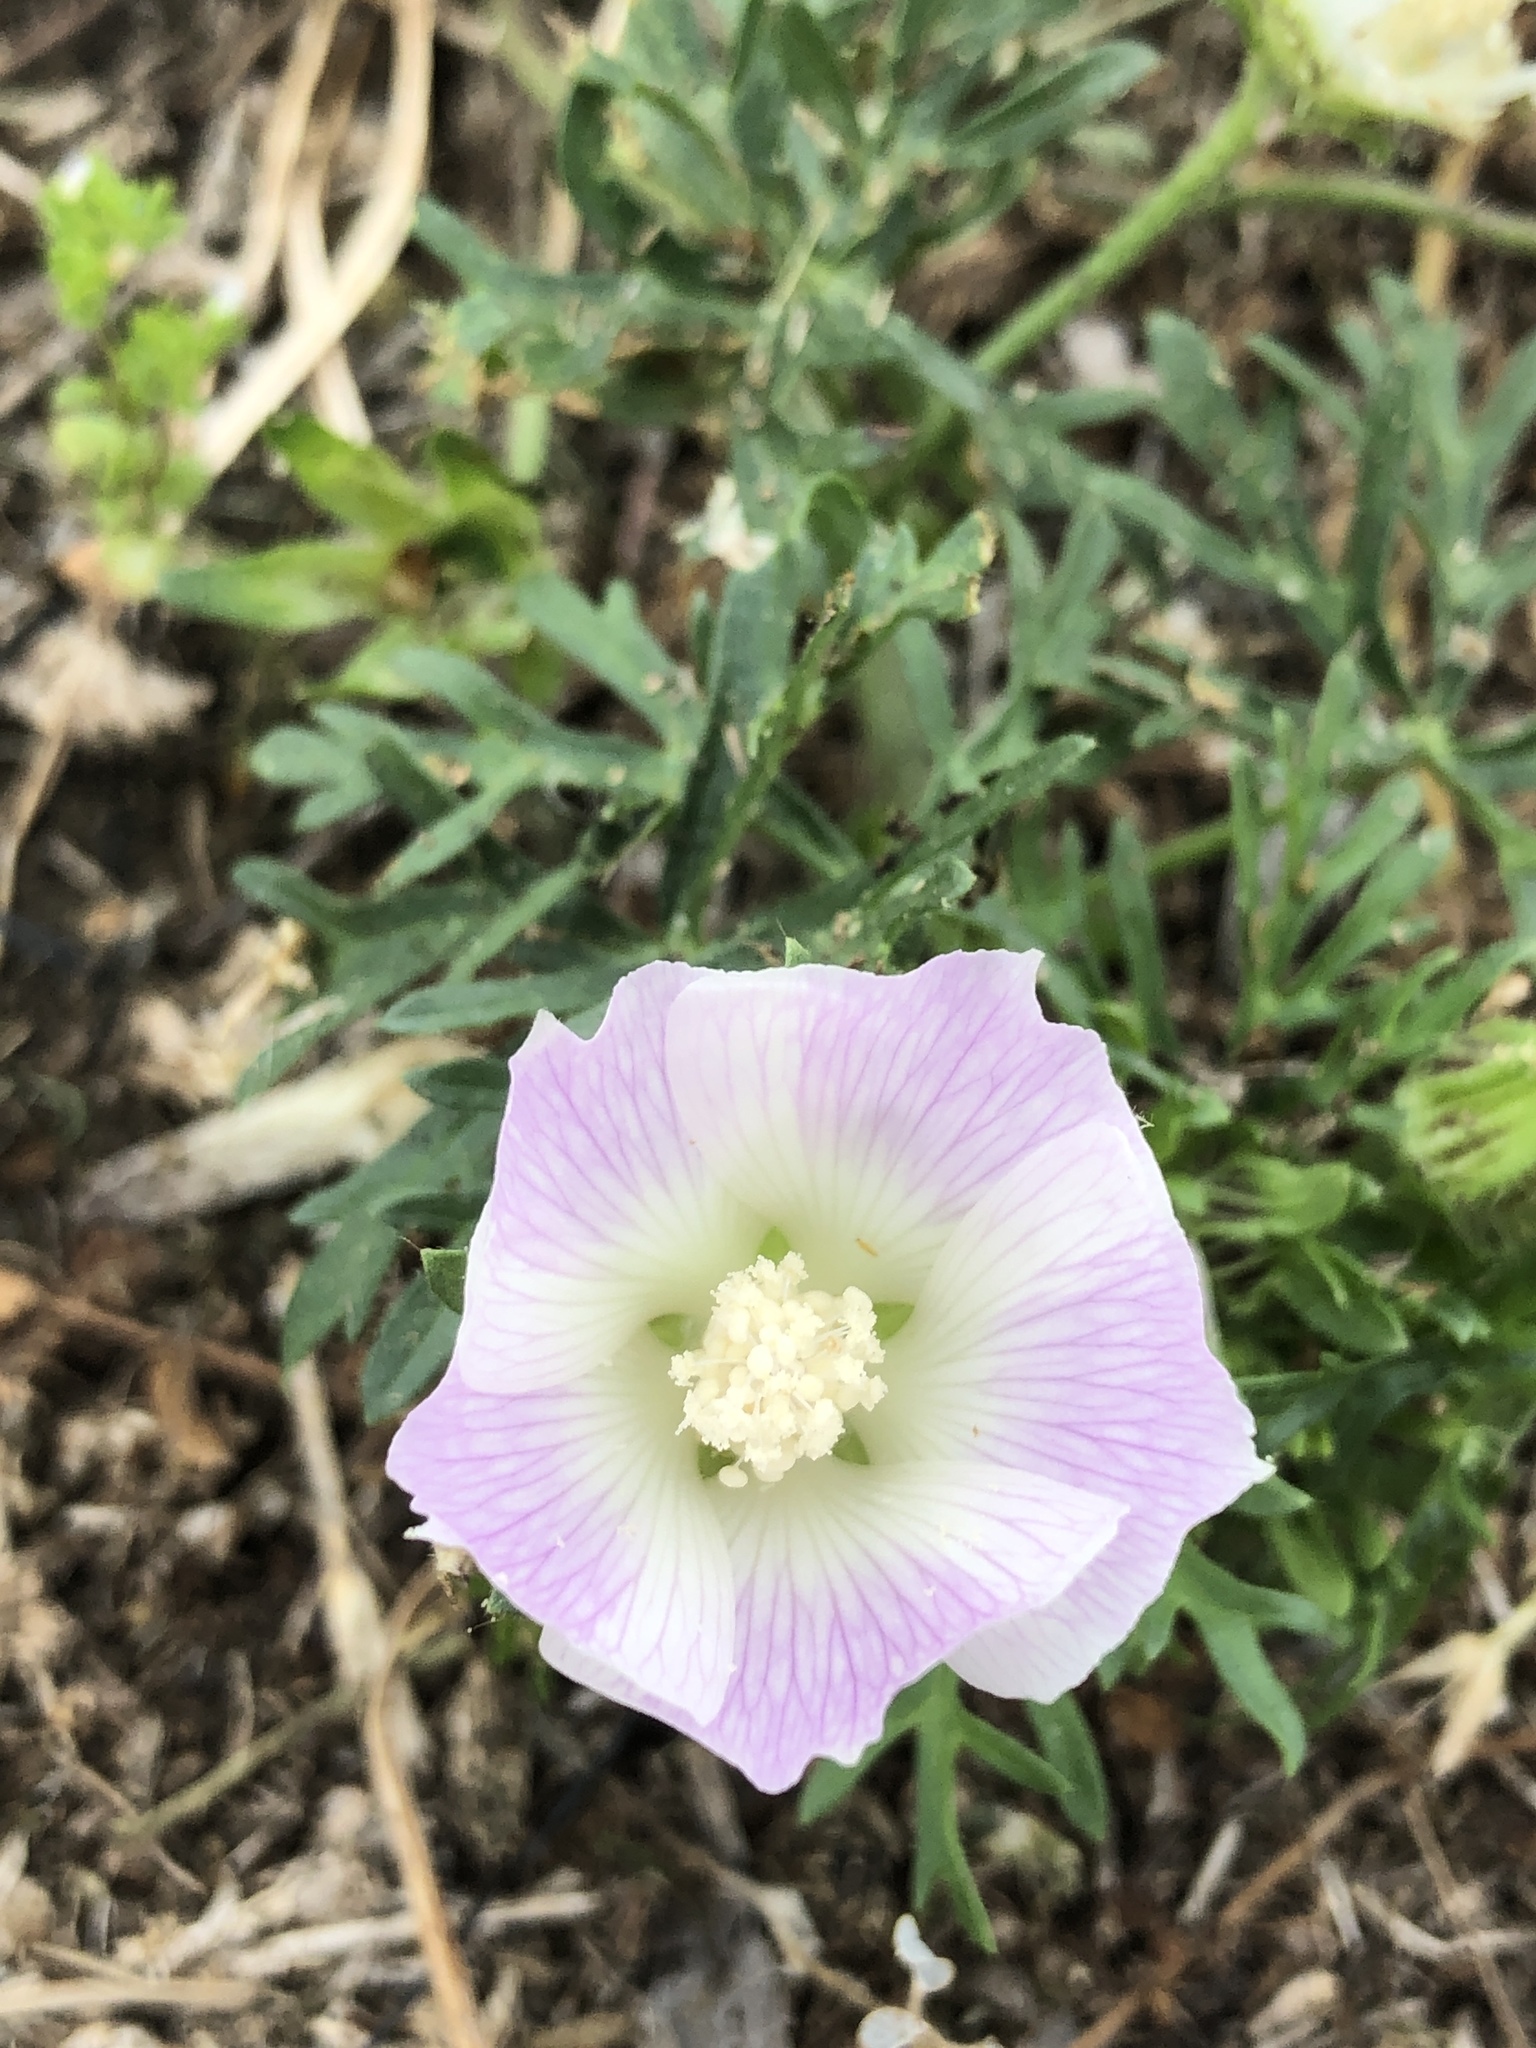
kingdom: Plantae
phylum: Tracheophyta
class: Magnoliopsida
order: Malvales
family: Malvaceae
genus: Callirhoe
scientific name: Callirhoe involucrata
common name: Purple poppy-mallow
